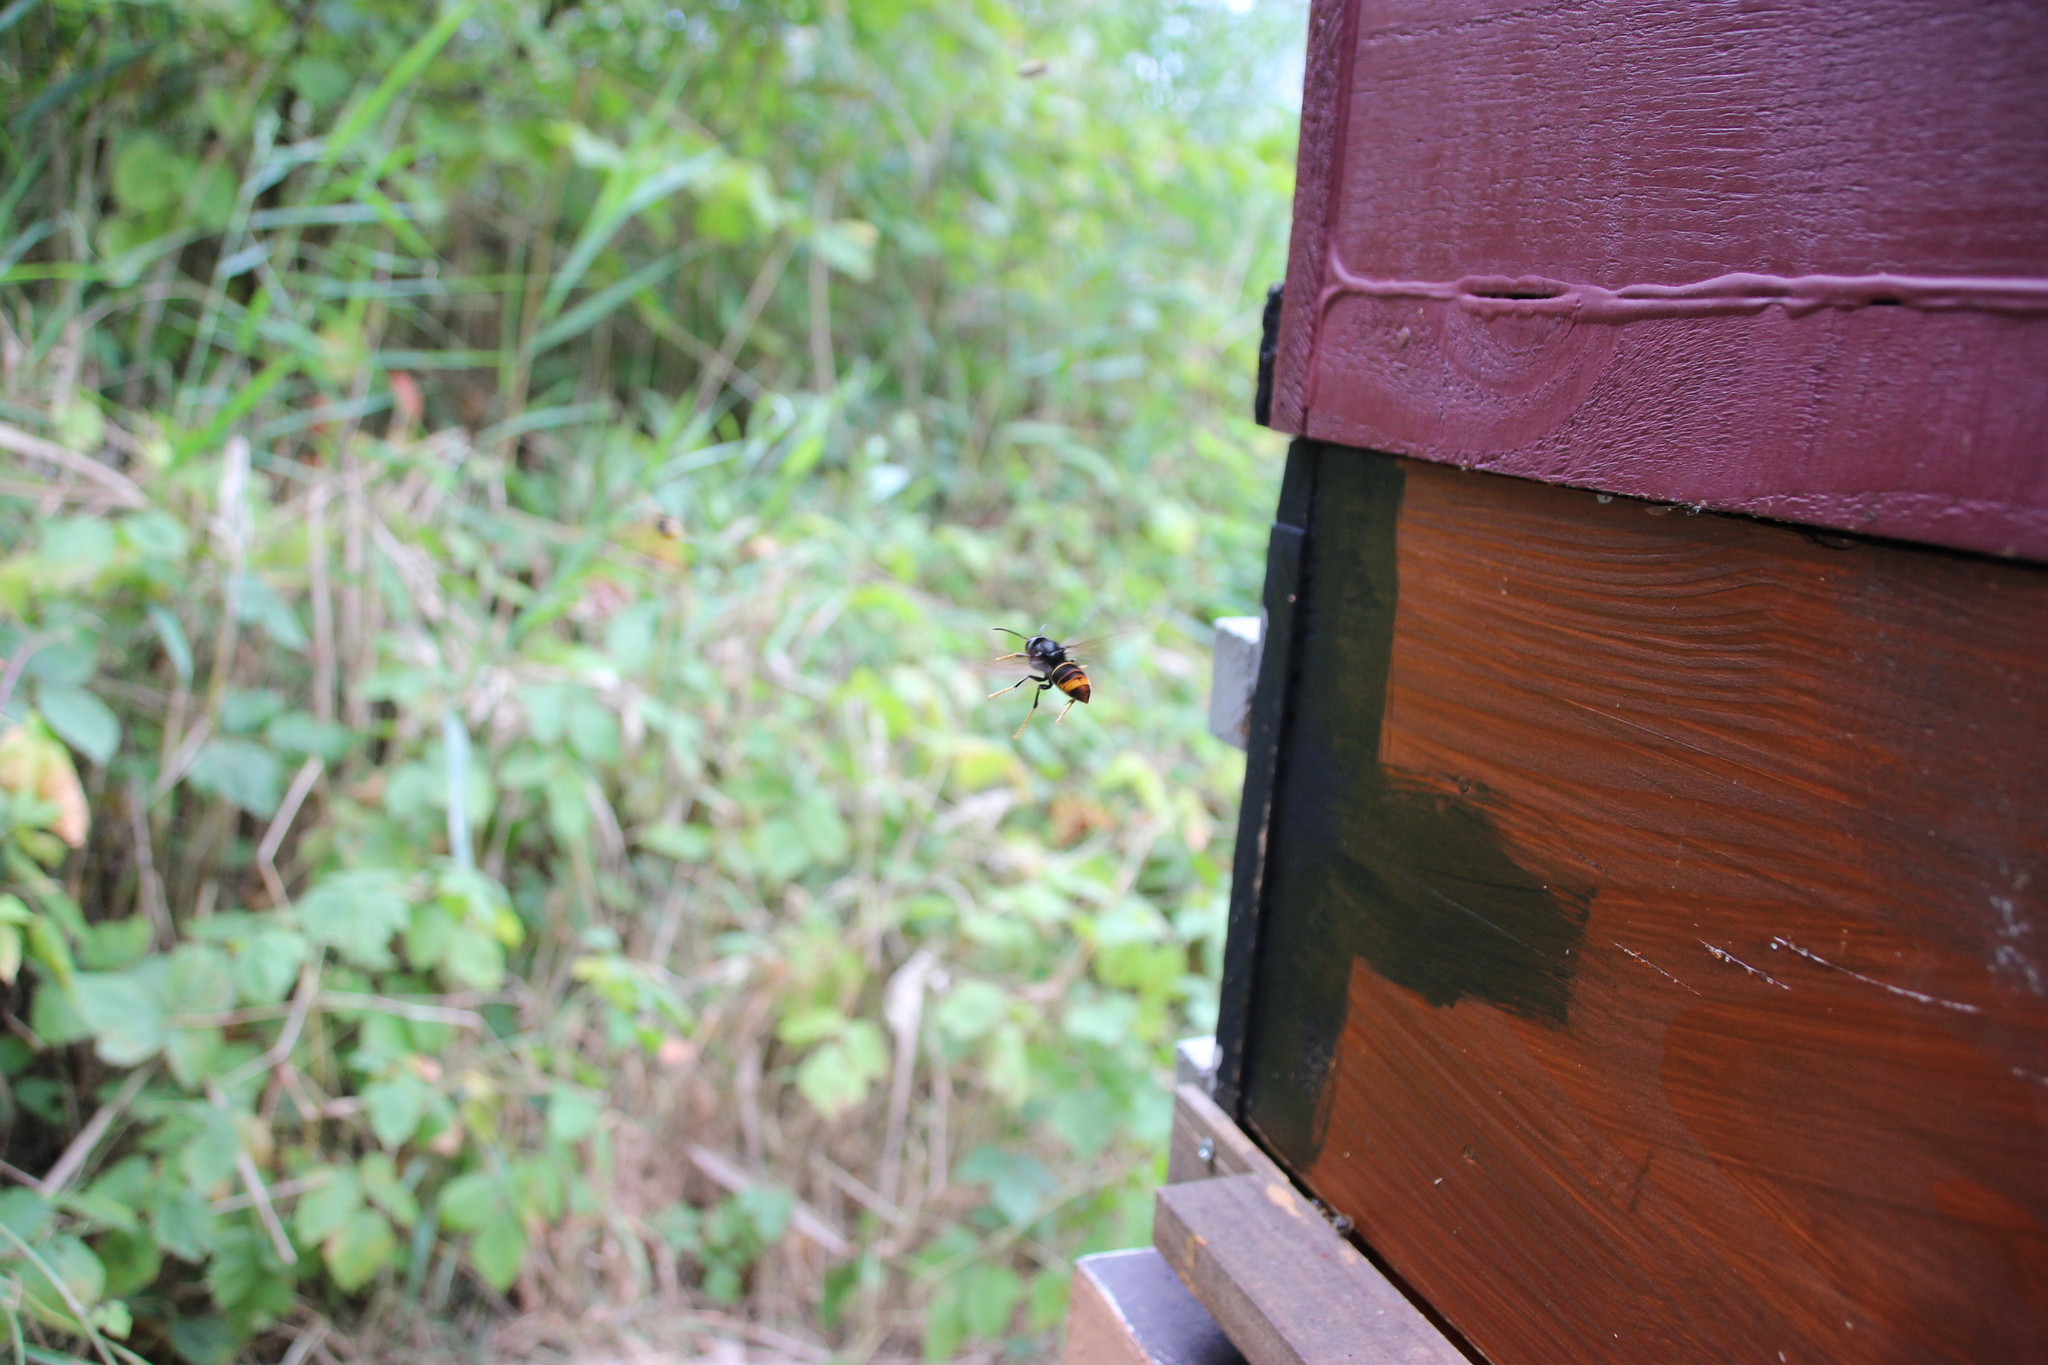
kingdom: Animalia
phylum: Arthropoda
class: Insecta
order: Hymenoptera
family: Vespidae
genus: Vespa
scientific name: Vespa velutina
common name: Asian hornet
